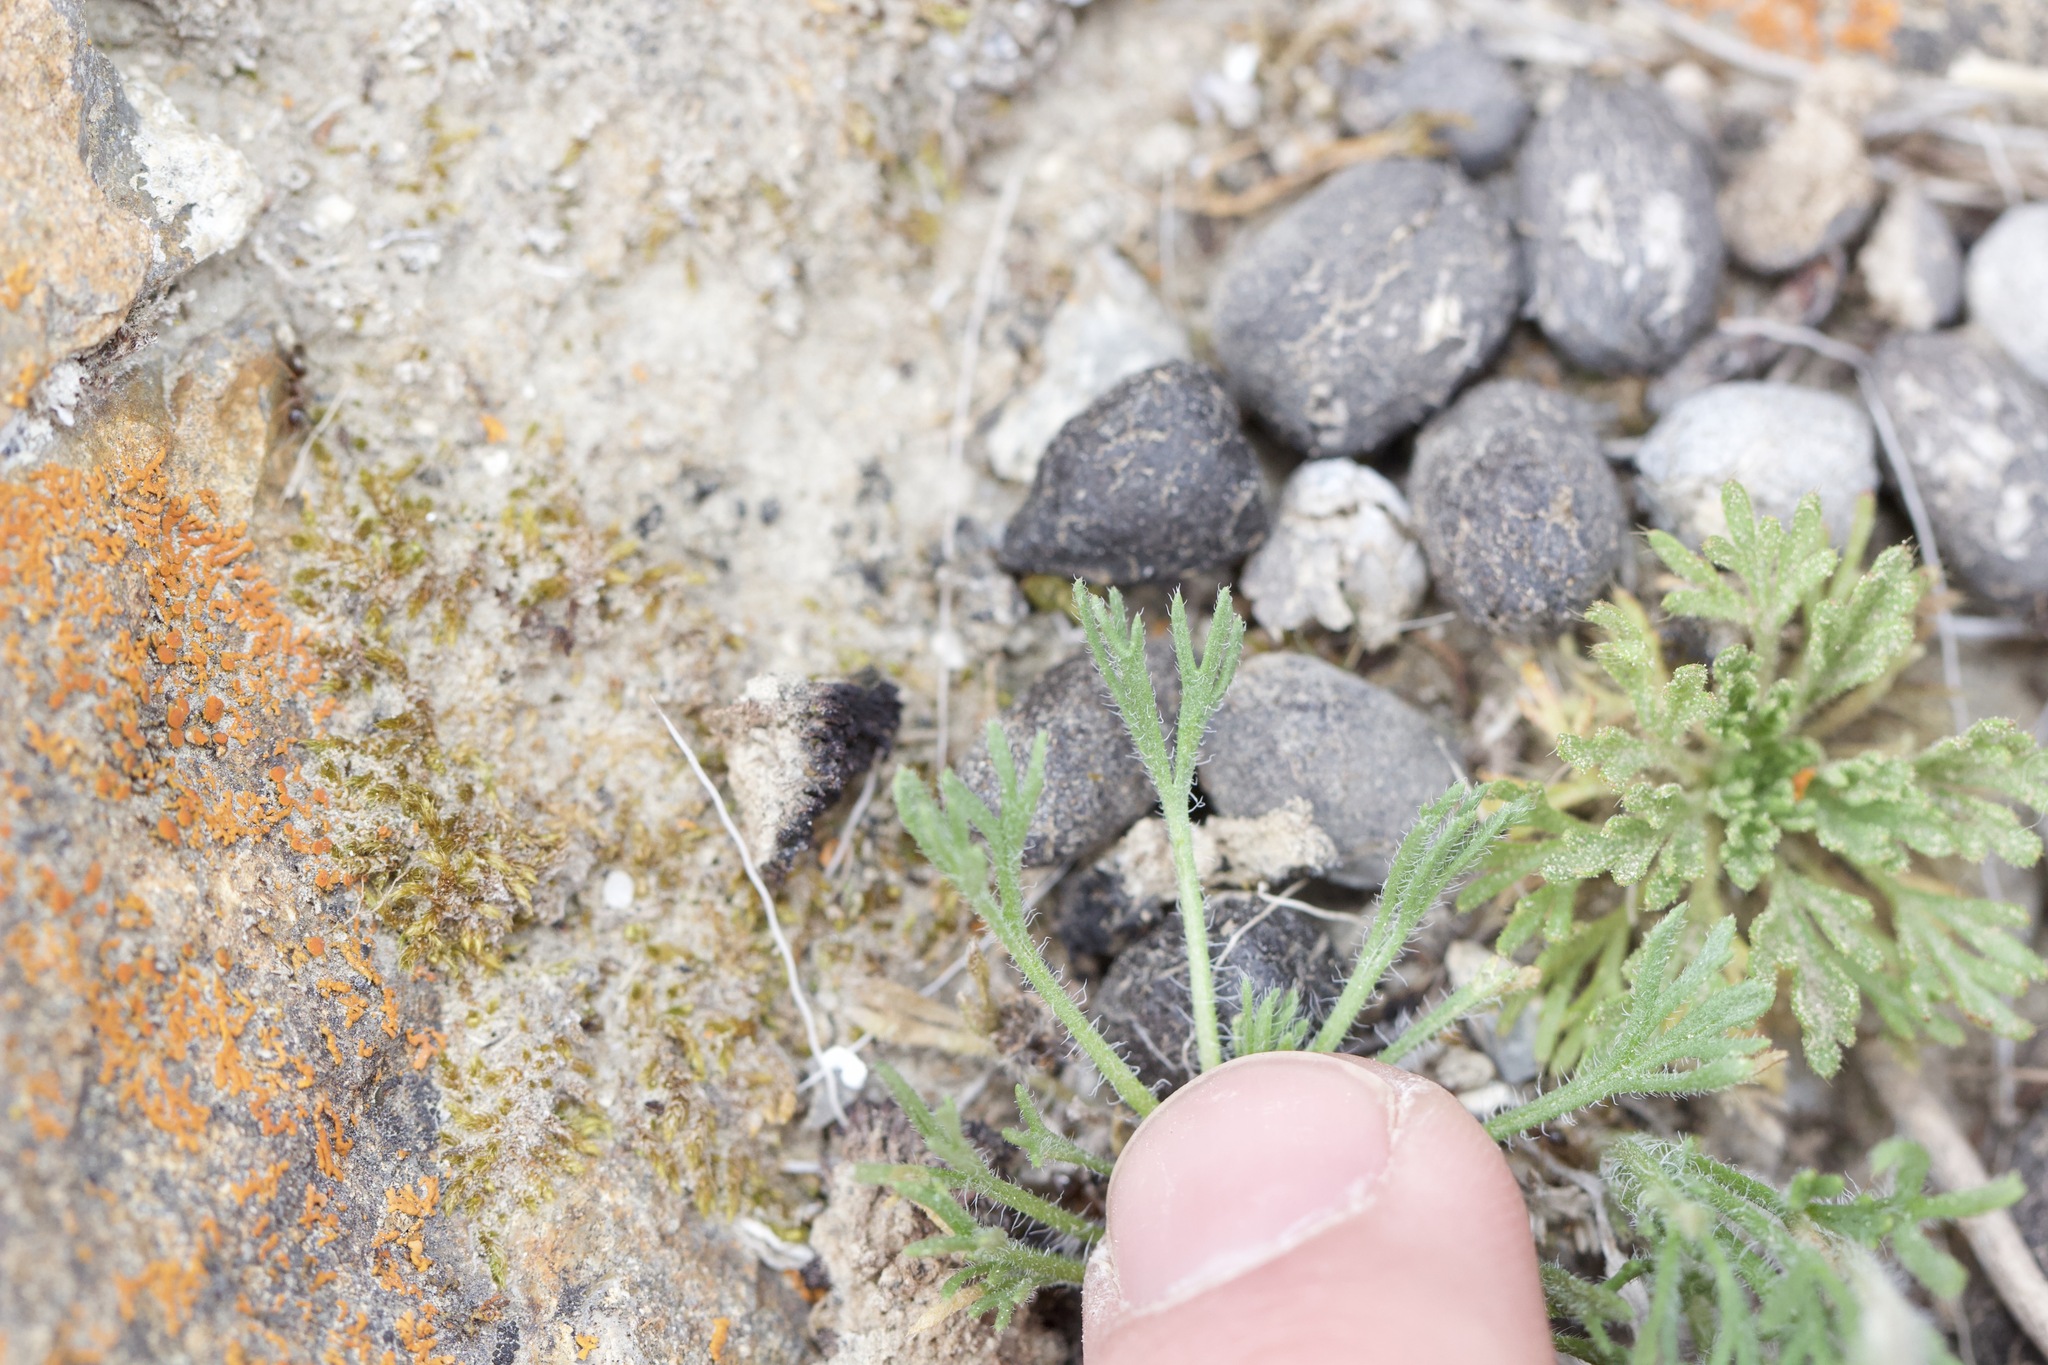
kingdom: Plantae
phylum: Tracheophyta
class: Magnoliopsida
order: Asterales
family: Asteraceae
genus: Erigeron
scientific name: Erigeron compositus
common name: Dwarf mountain fleabane
